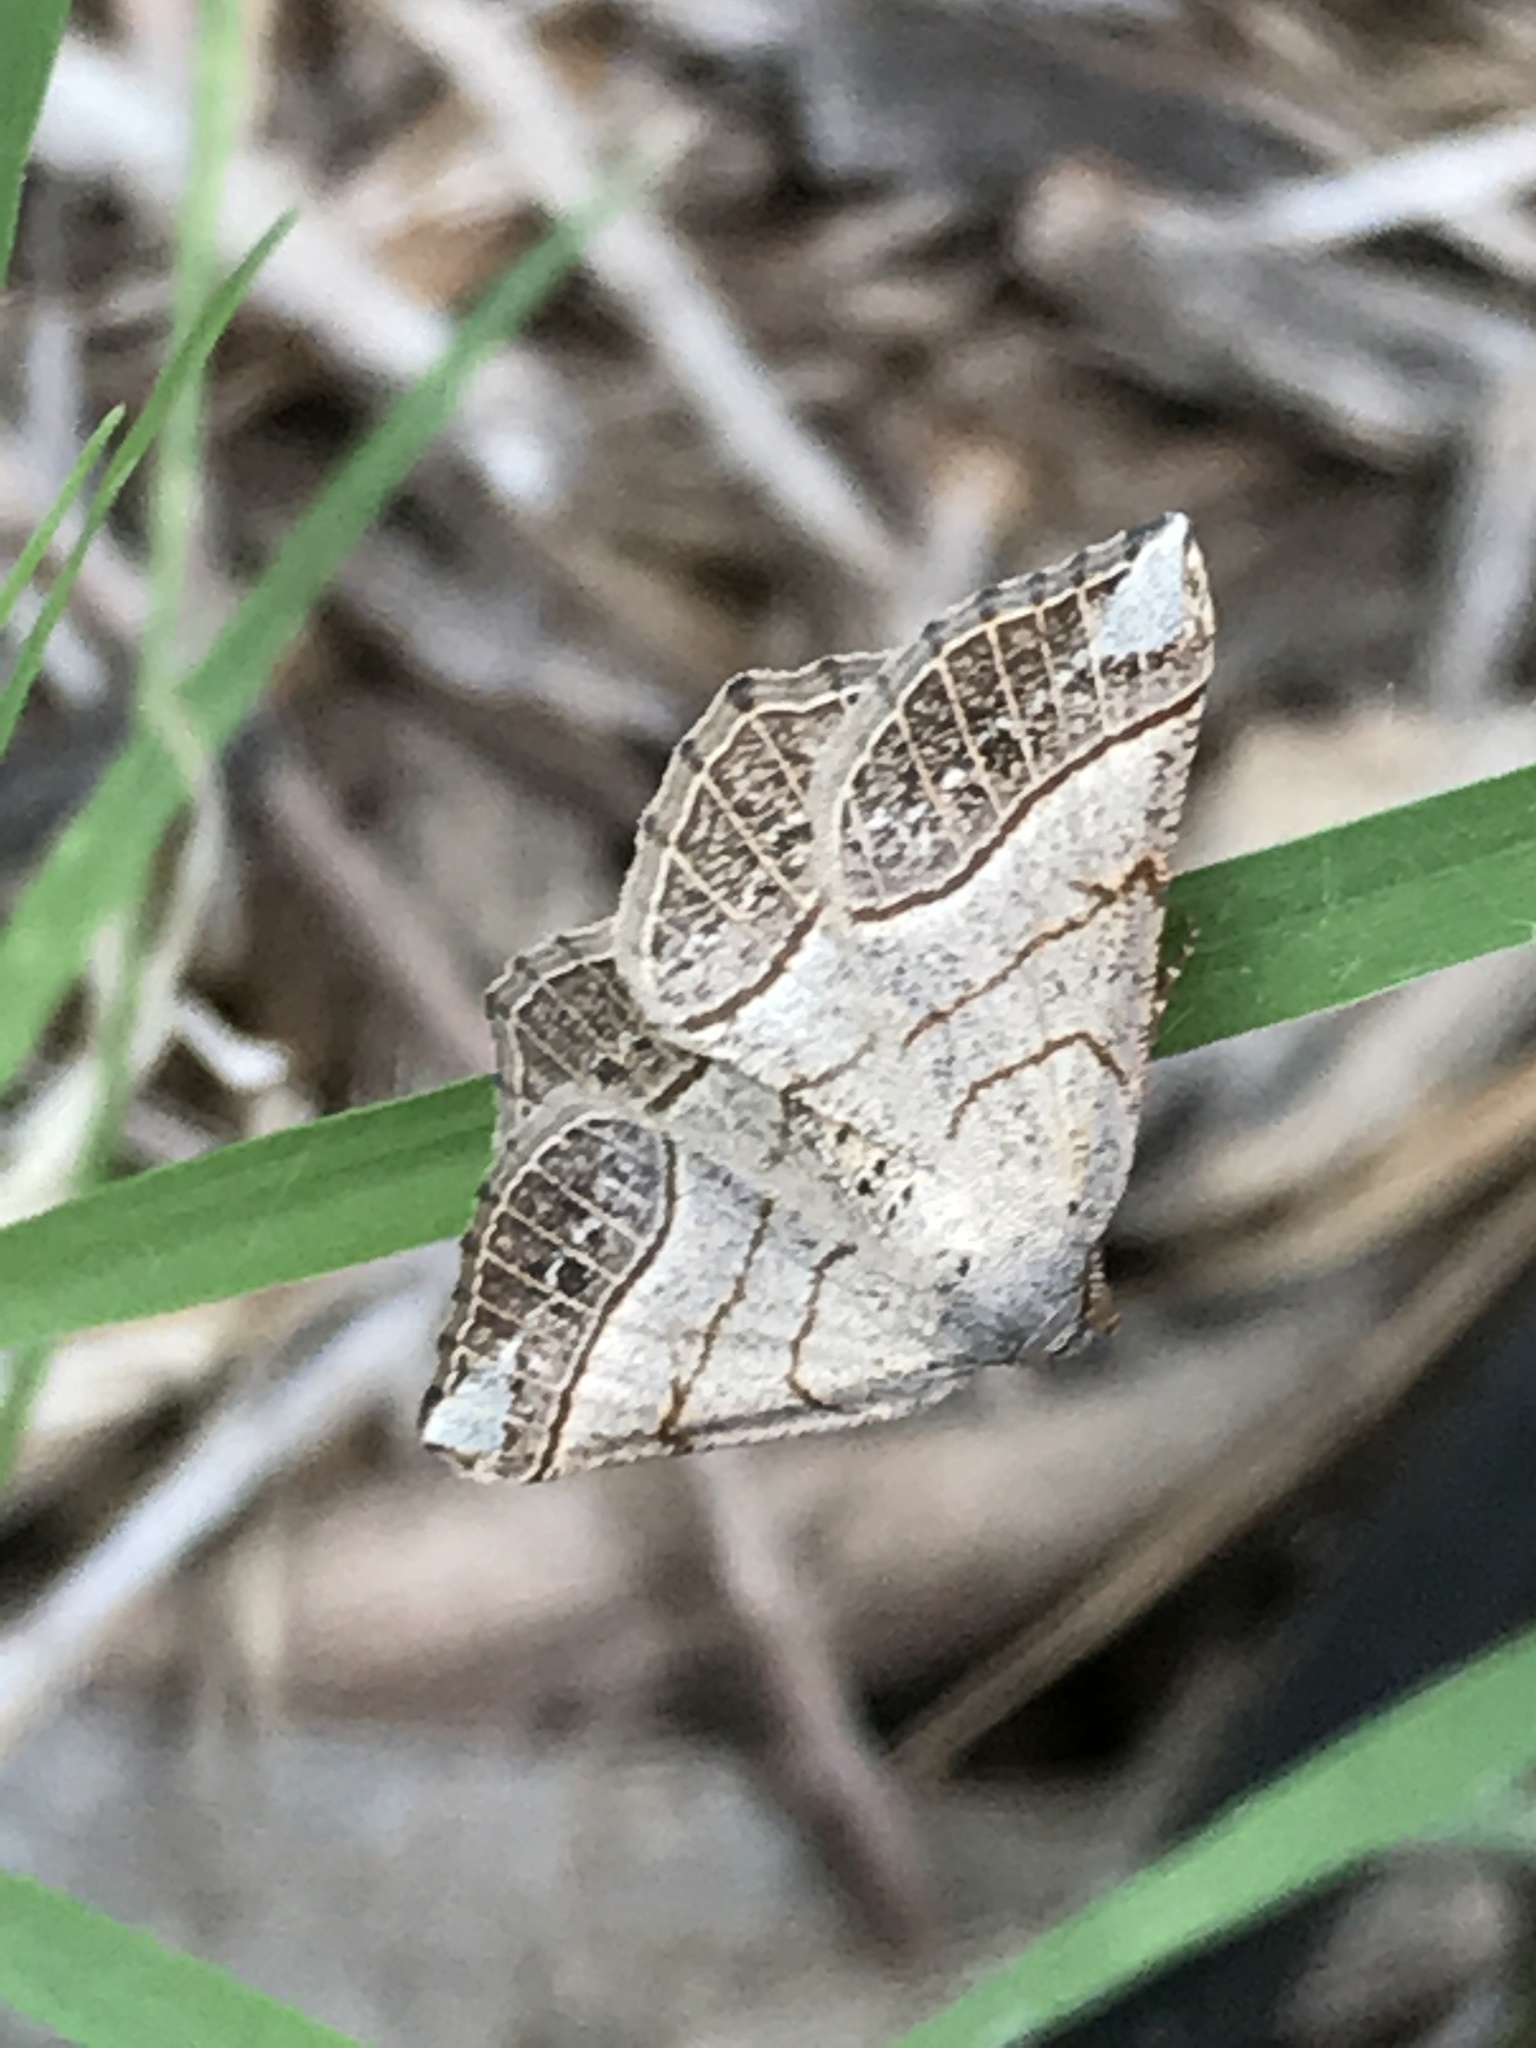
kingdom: Animalia
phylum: Arthropoda
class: Insecta
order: Lepidoptera
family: Geometridae
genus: Eumacaria
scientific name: Eumacaria madopata
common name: Brown-bordered geometer
